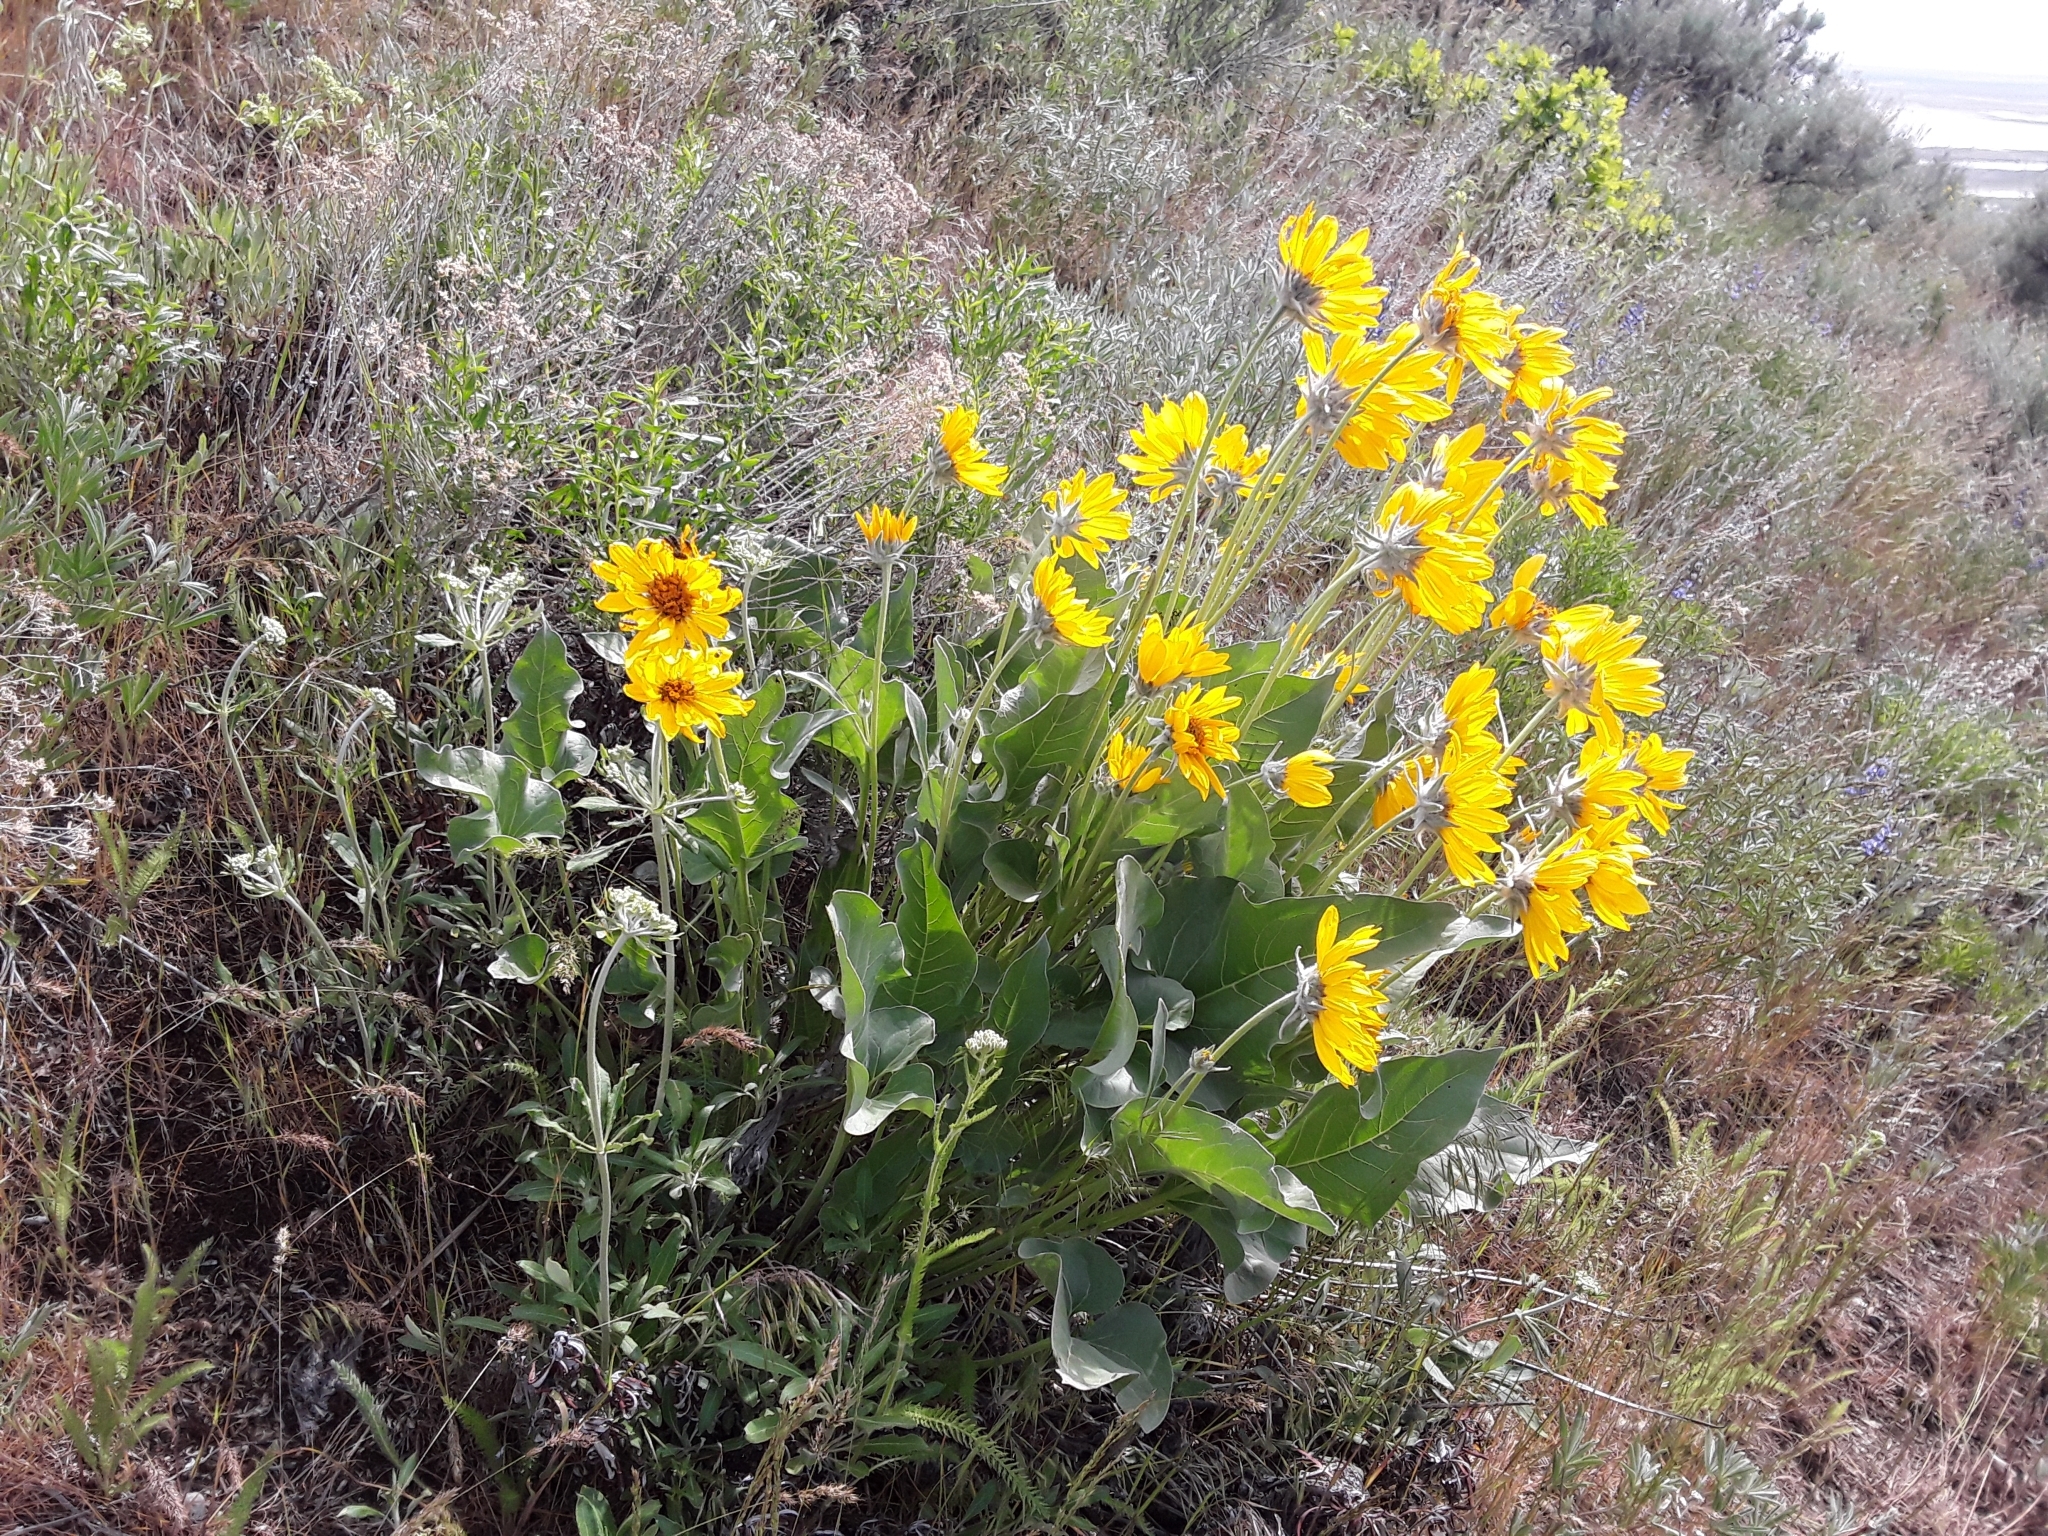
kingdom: Plantae
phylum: Tracheophyta
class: Magnoliopsida
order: Asterales
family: Asteraceae
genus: Wyethia
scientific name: Wyethia sagittata
